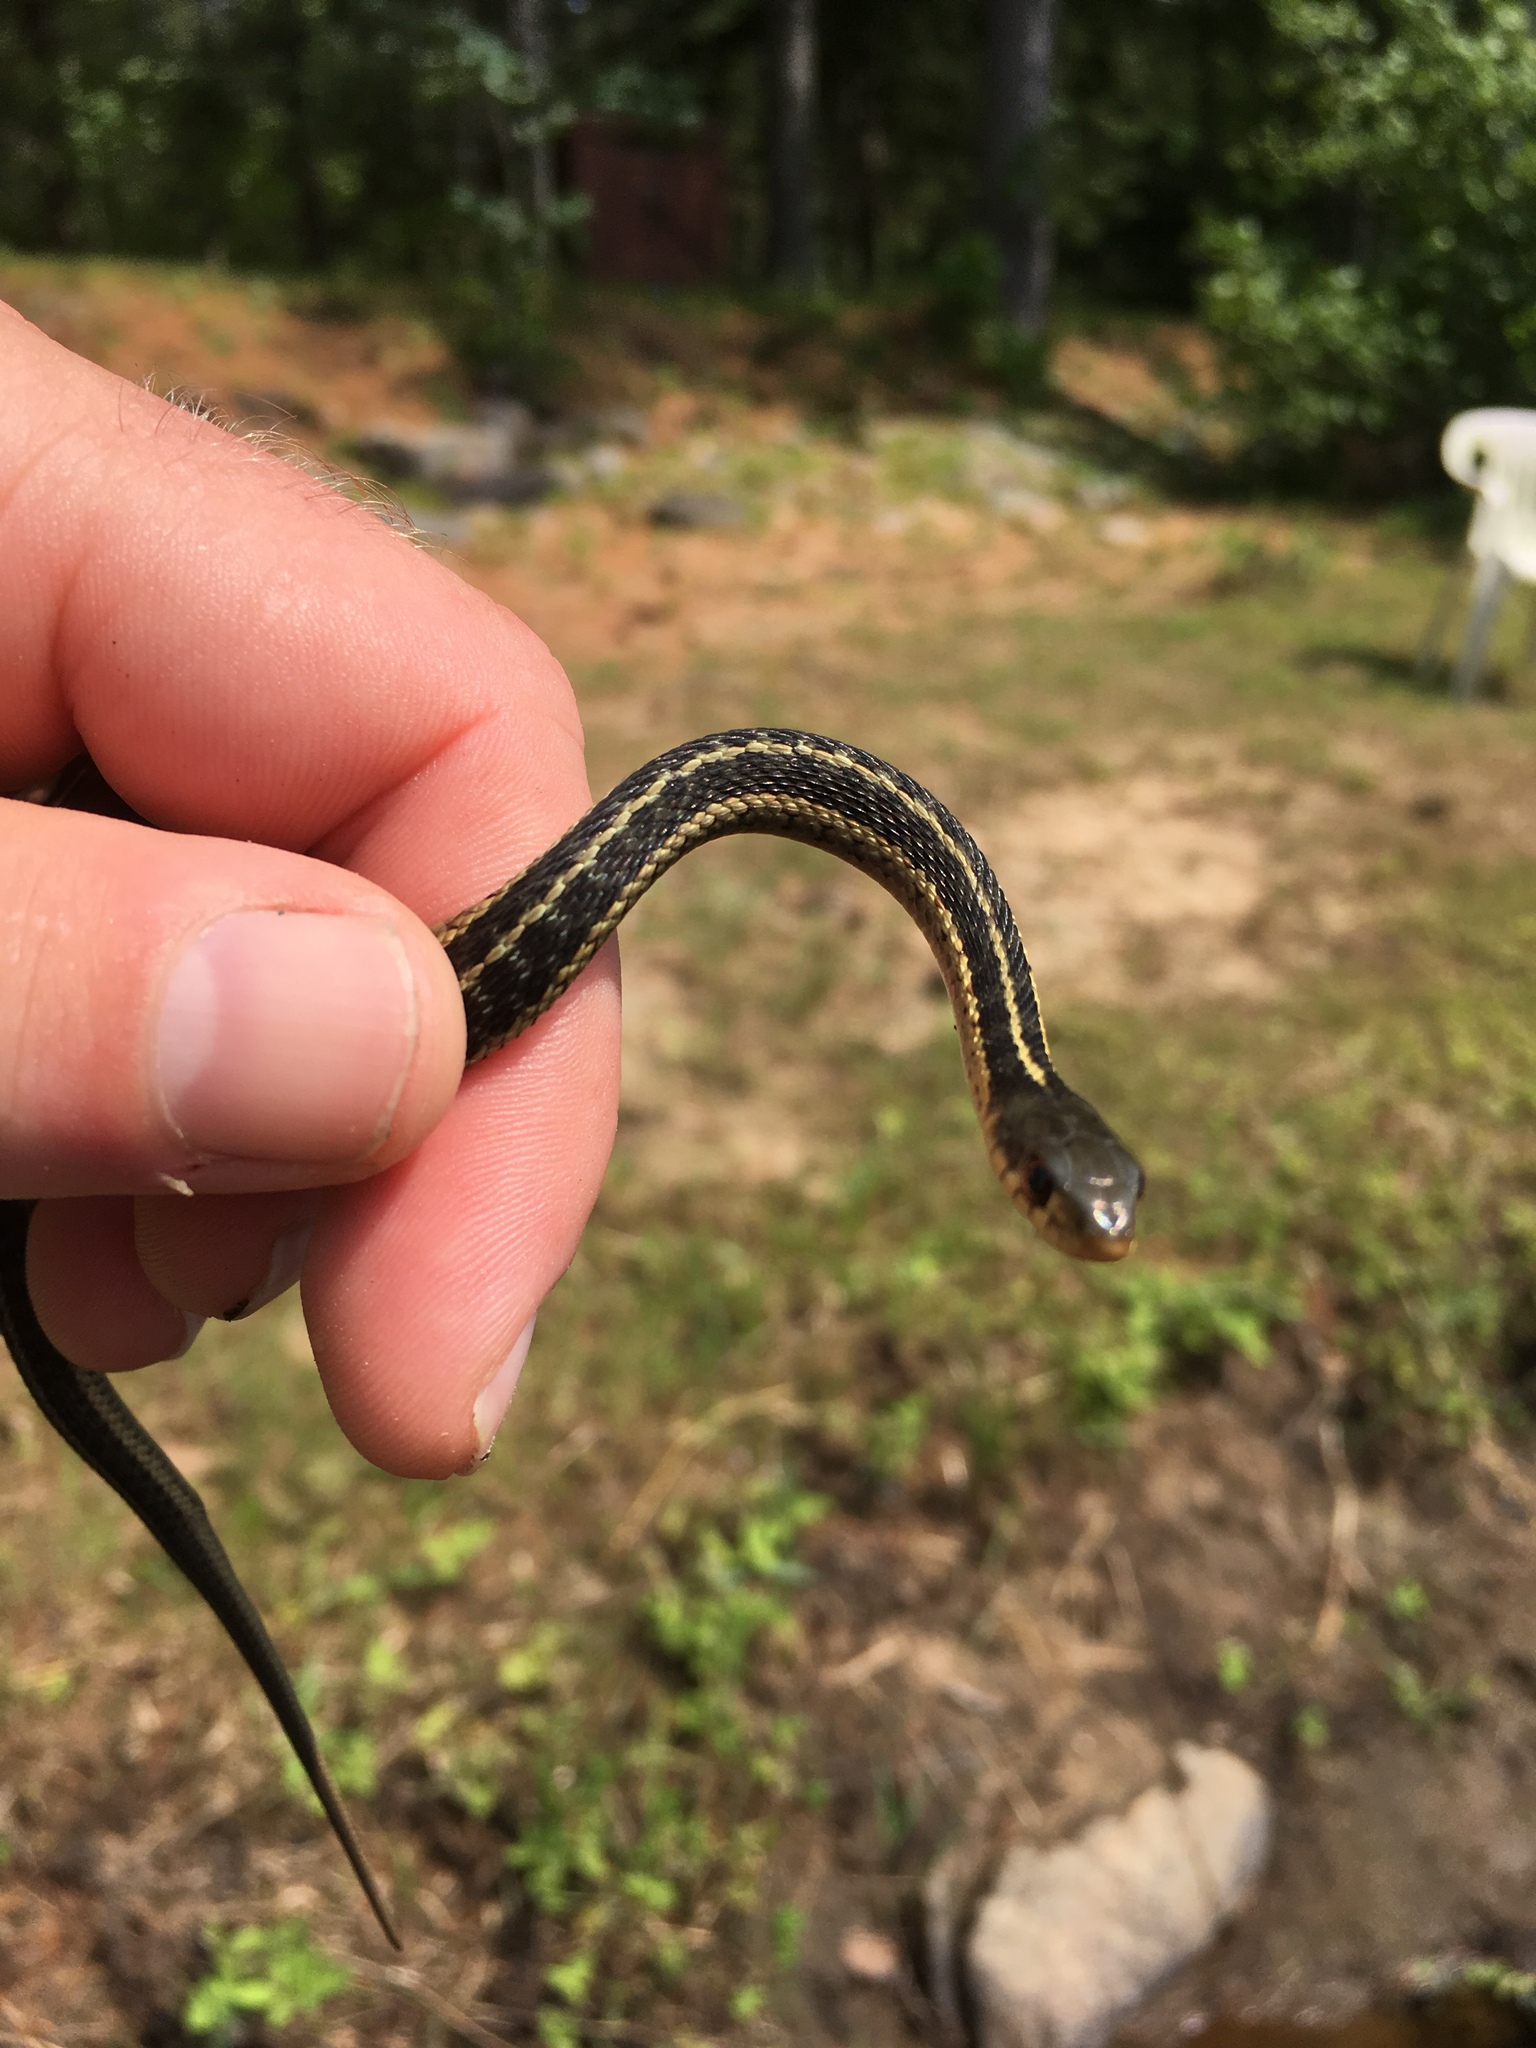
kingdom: Animalia
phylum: Chordata
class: Squamata
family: Colubridae
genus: Thamnophis
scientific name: Thamnophis sirtalis
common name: Common garter snake
